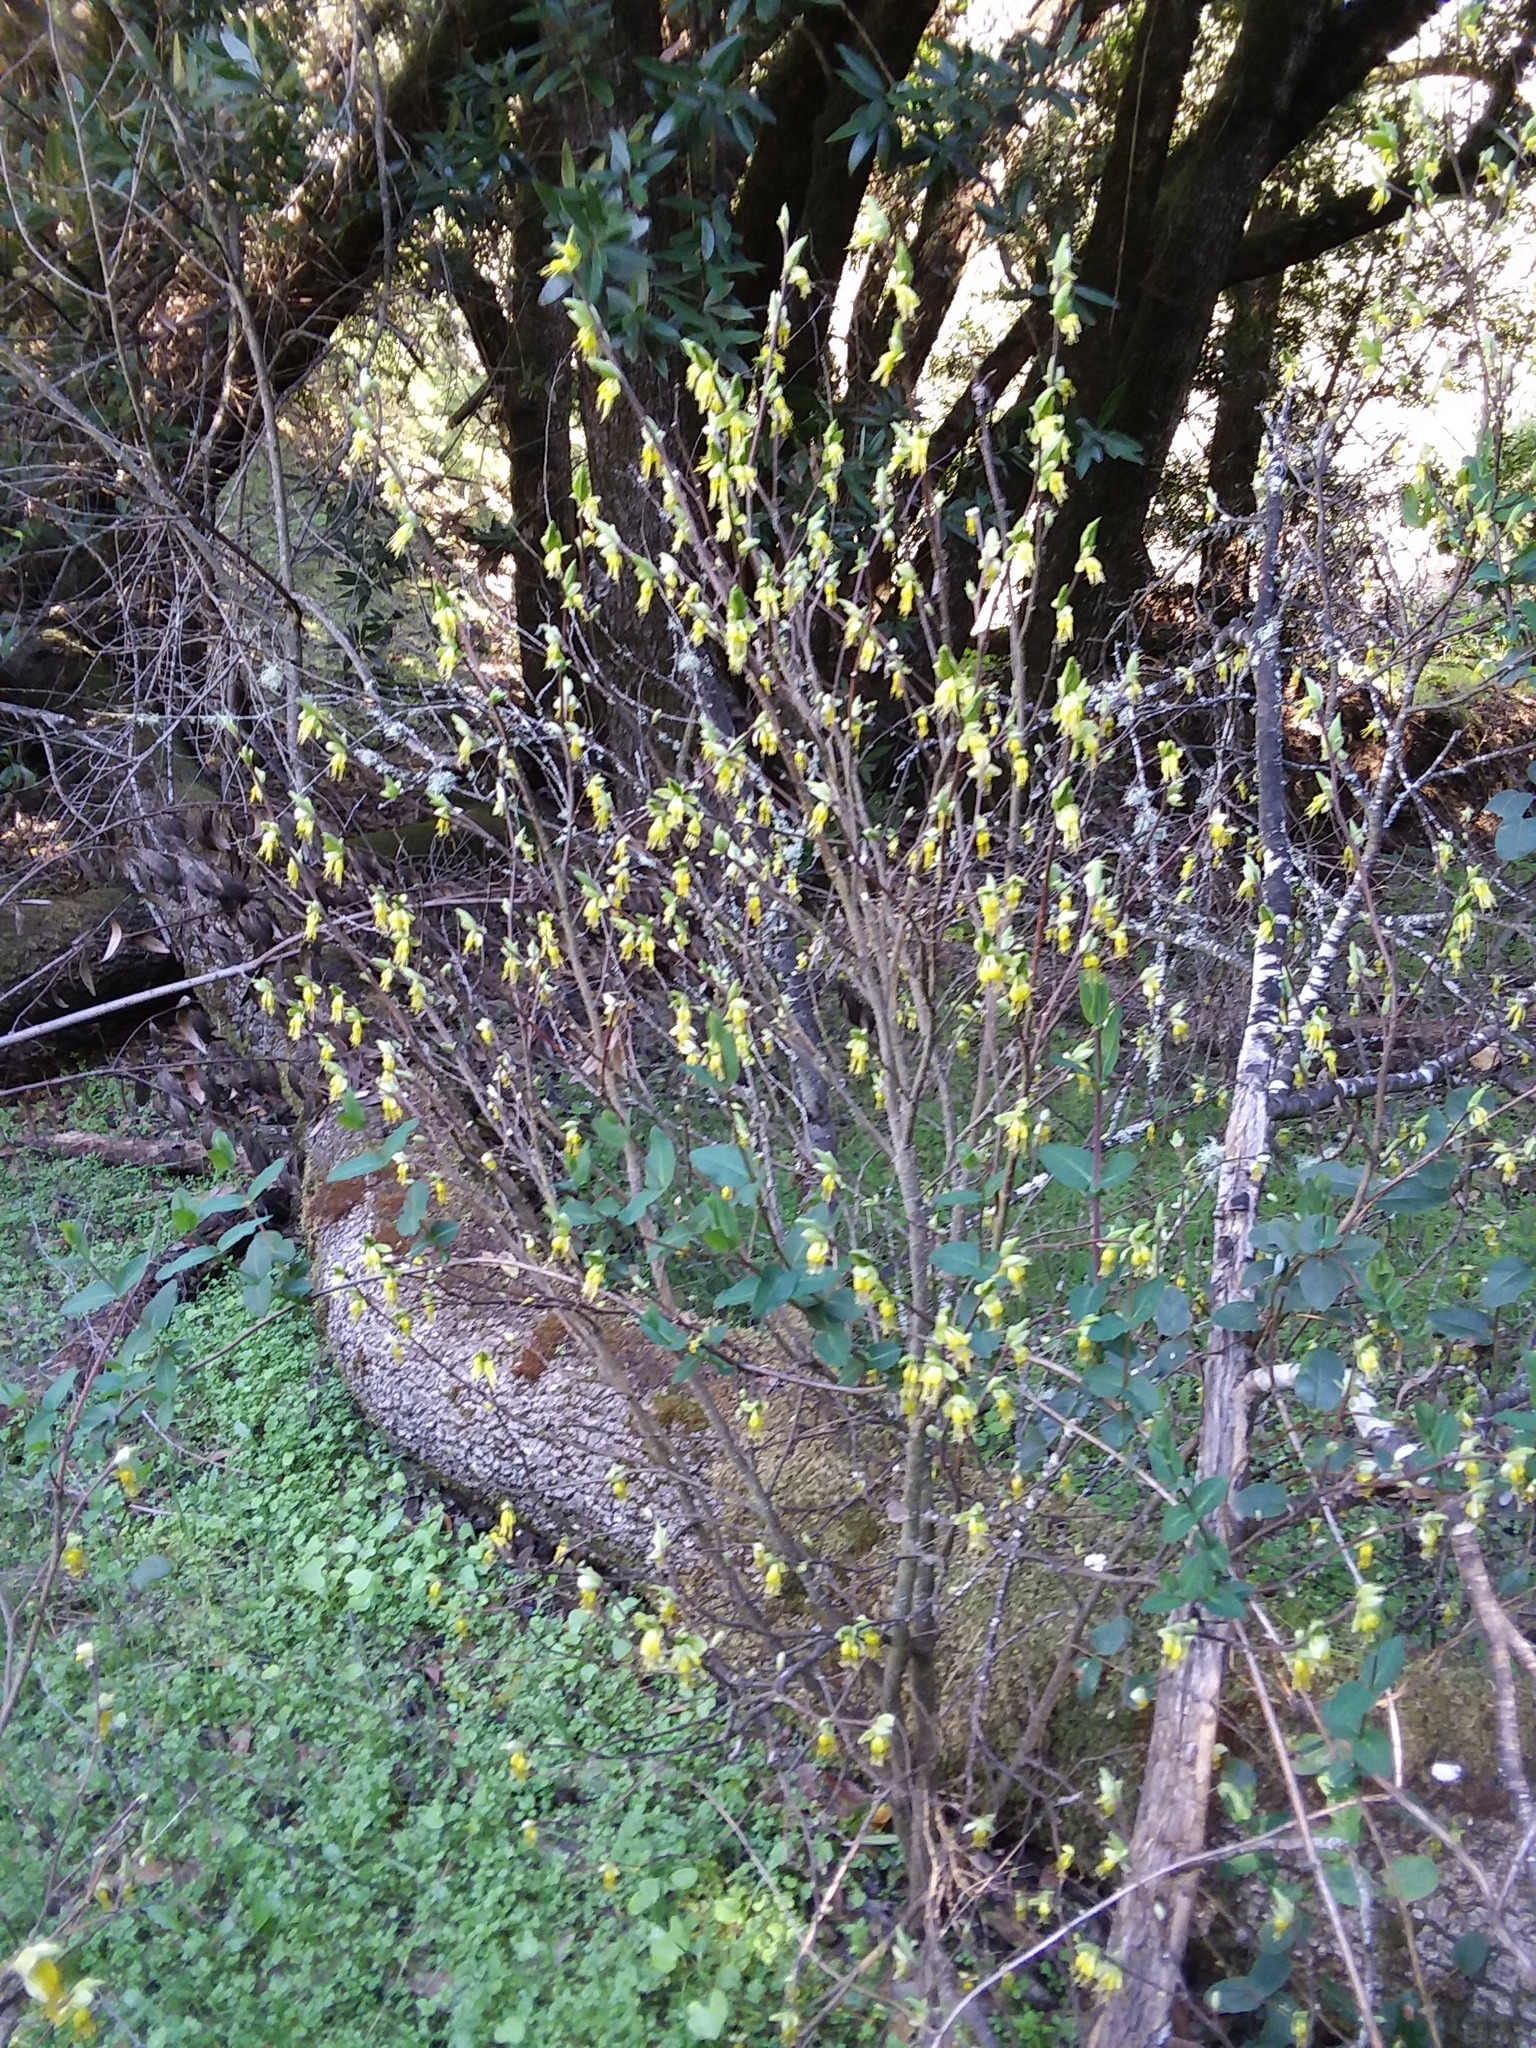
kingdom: Plantae
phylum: Tracheophyta
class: Magnoliopsida
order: Malvales
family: Thymelaeaceae
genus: Dirca
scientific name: Dirca occidentalis
